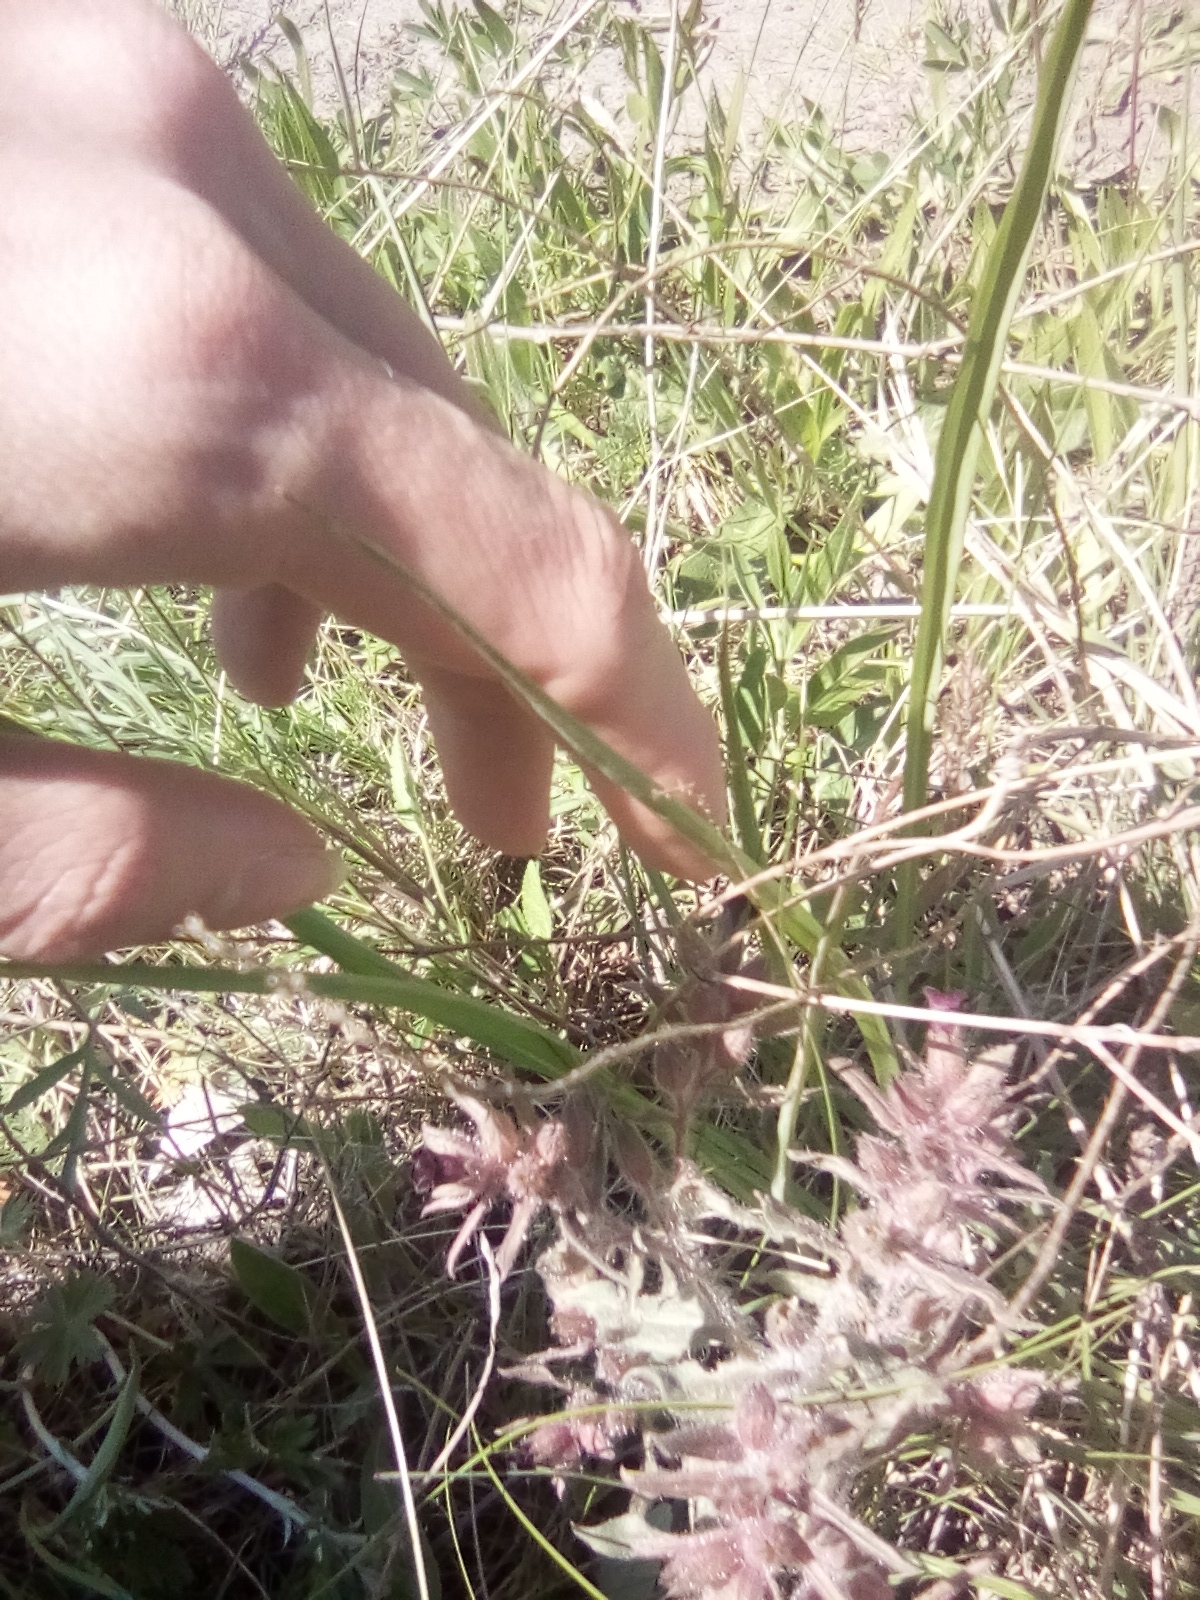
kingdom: Plantae
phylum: Tracheophyta
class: Magnoliopsida
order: Boraginales
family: Boraginaceae
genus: Nonea
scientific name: Nonea pulla
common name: Brown nonea
